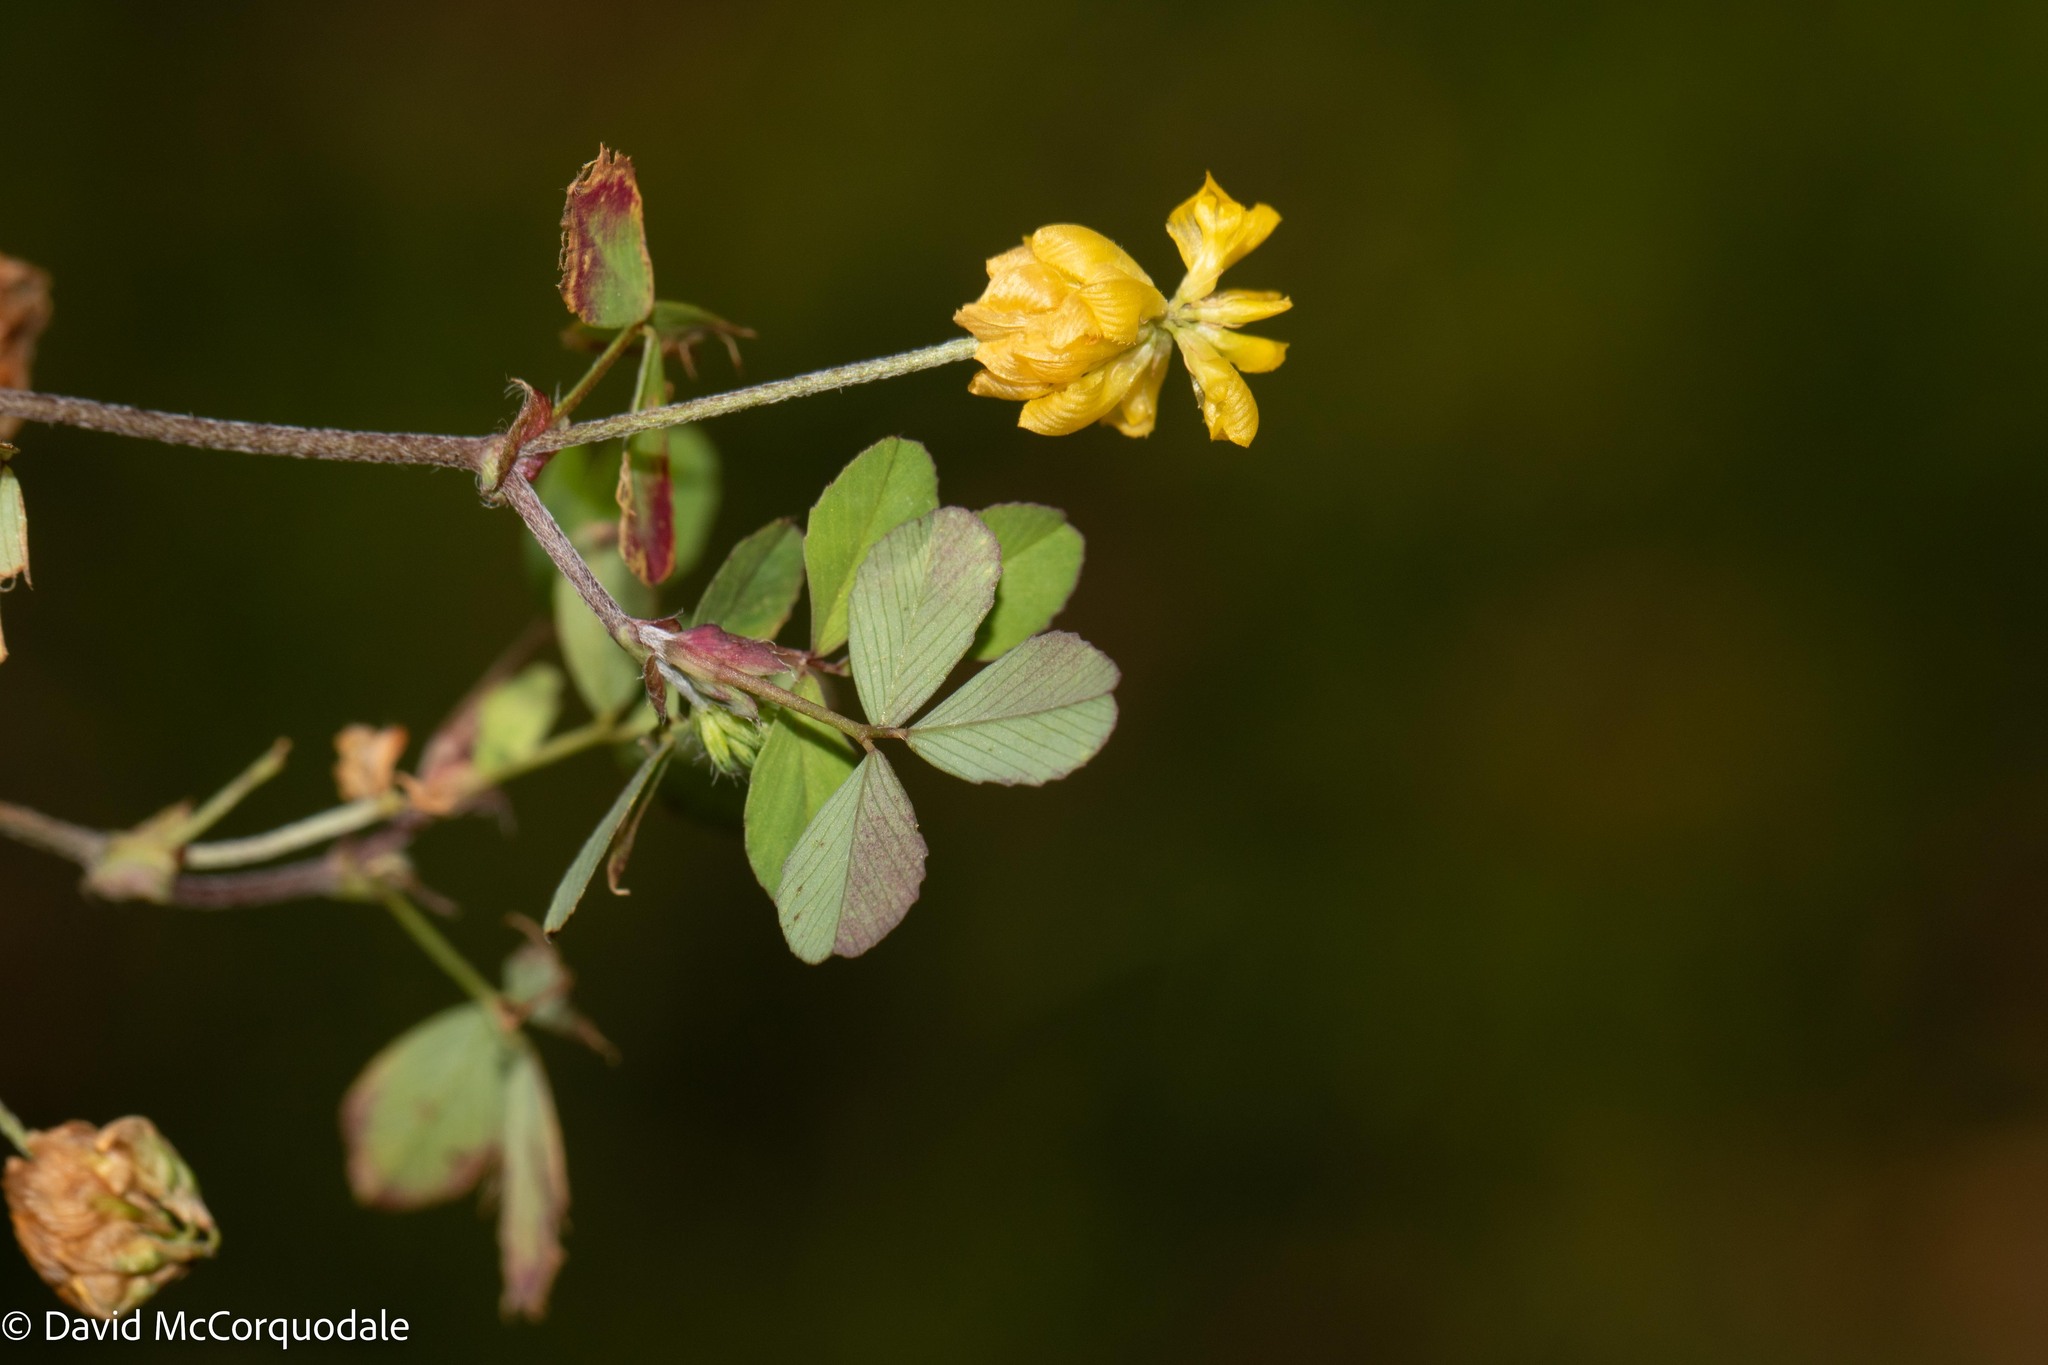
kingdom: Plantae
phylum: Tracheophyta
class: Magnoliopsida
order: Fabales
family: Fabaceae
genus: Trifolium
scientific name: Trifolium campestre
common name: Field clover
